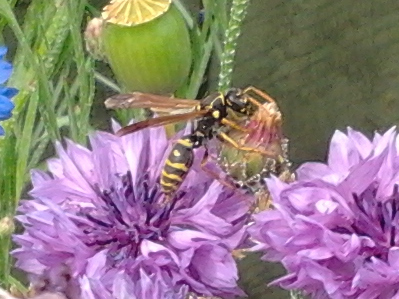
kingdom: Animalia
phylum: Arthropoda
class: Insecta
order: Hymenoptera
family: Eumenidae
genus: Polistes
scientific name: Polistes chinensis
